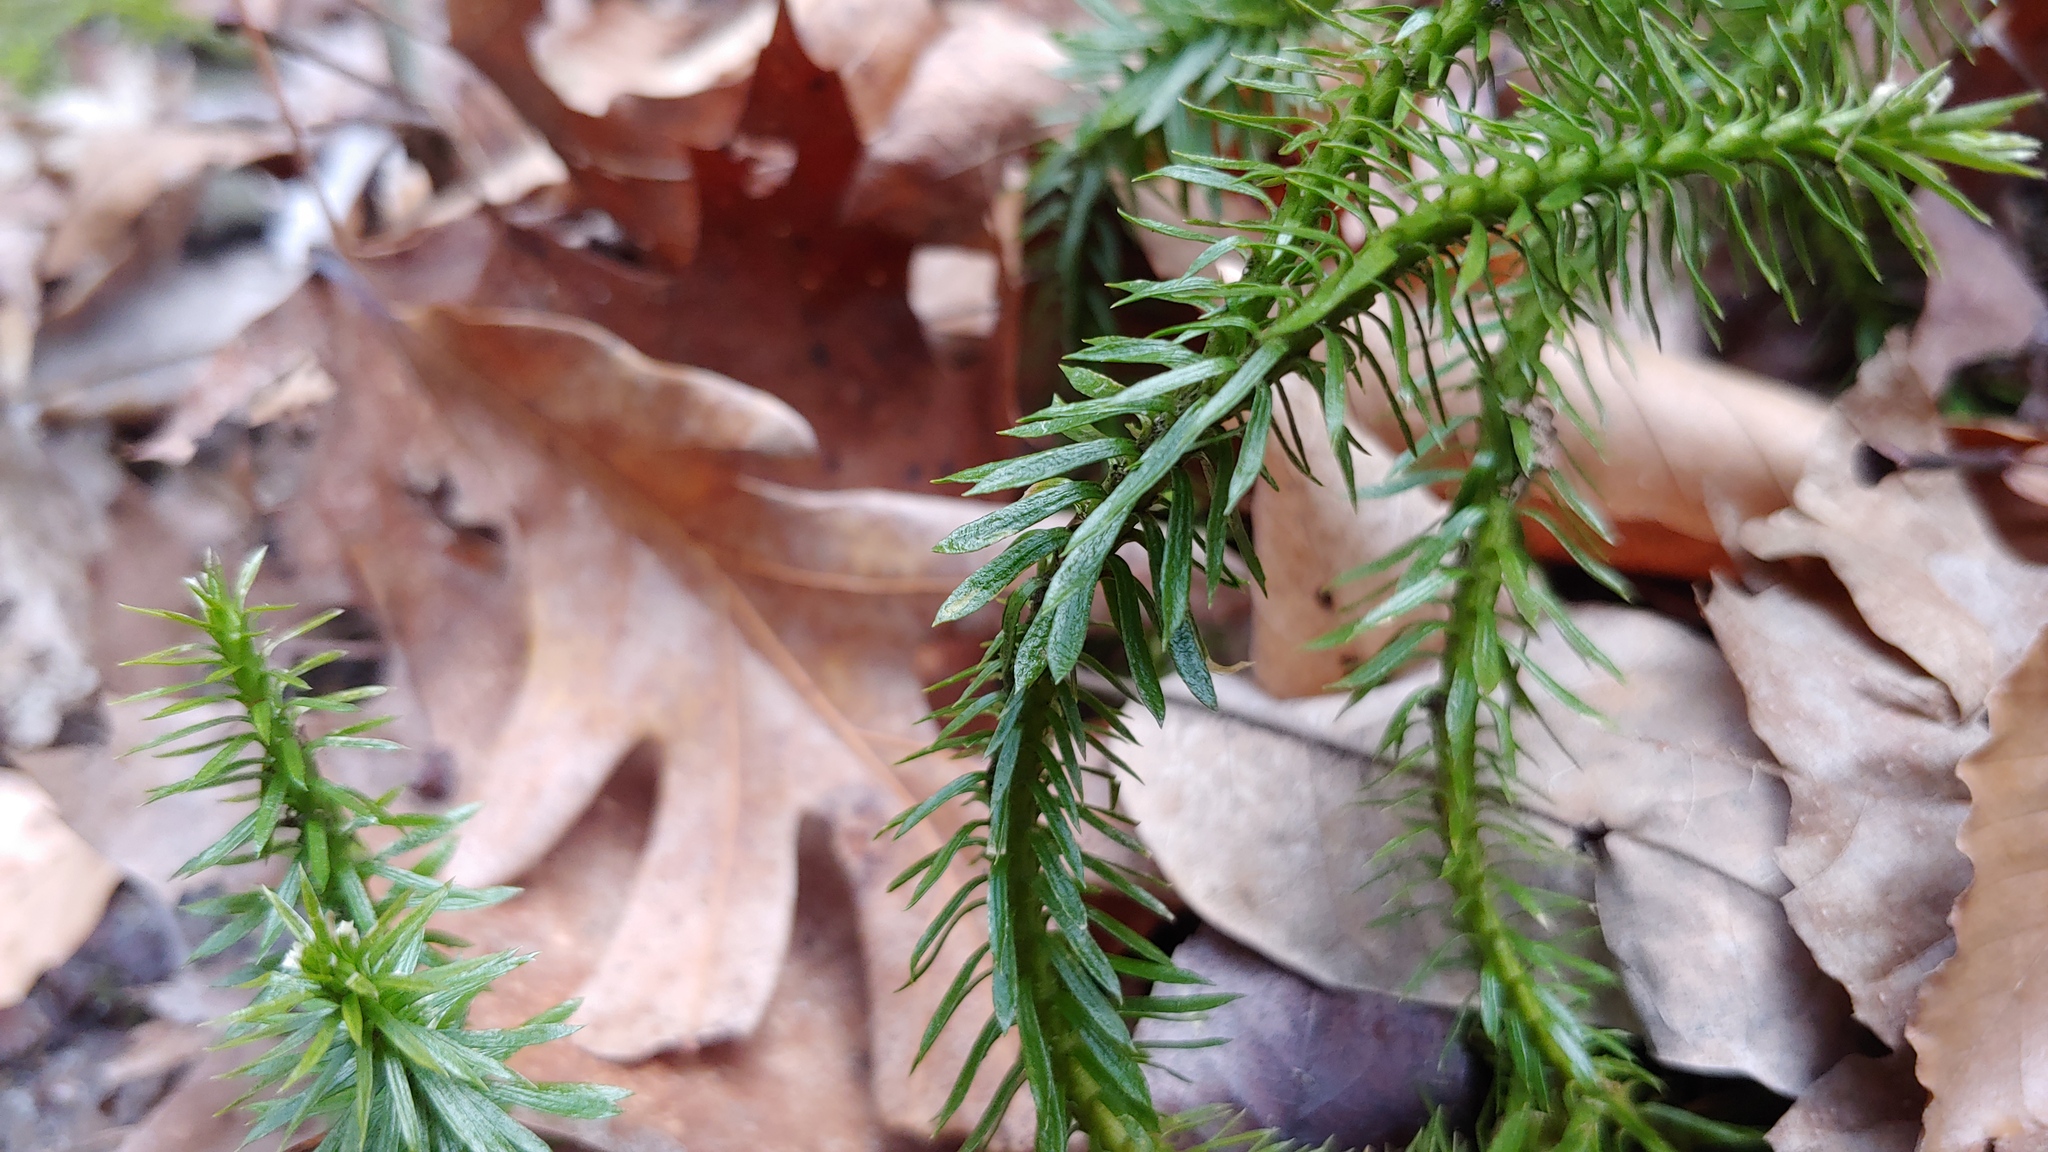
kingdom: Plantae
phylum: Tracheophyta
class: Lycopodiopsida
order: Lycopodiales
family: Lycopodiaceae
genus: Huperzia
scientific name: Huperzia lucidula
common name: Shining clubmoss
